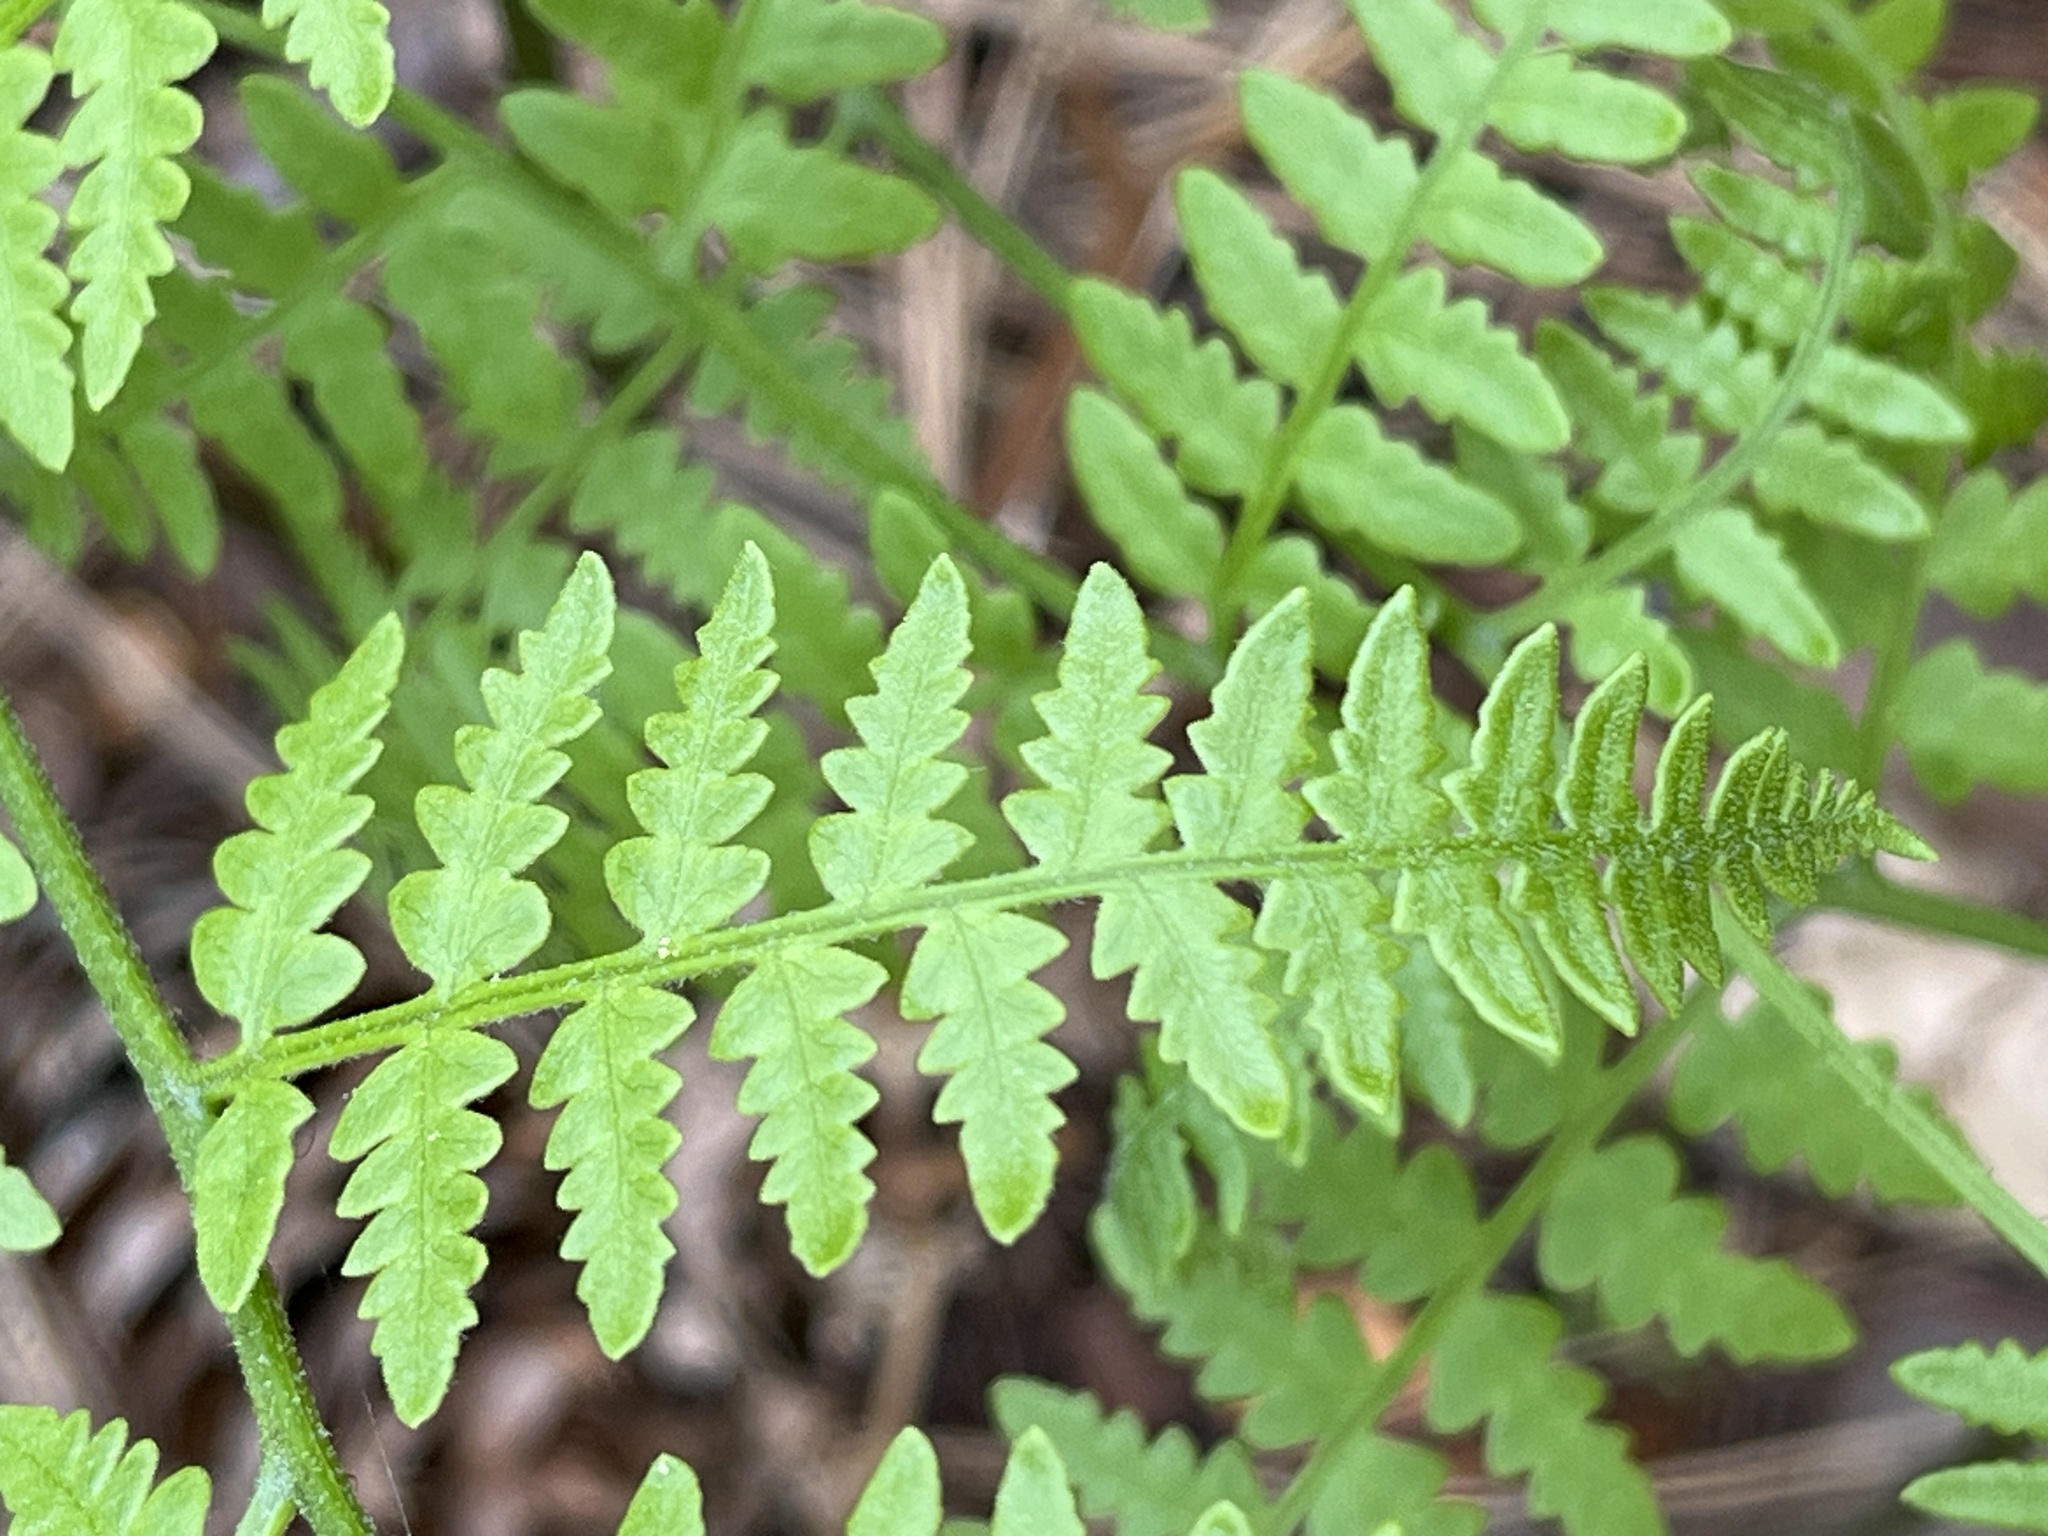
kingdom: Plantae
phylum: Tracheophyta
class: Polypodiopsida
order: Polypodiales
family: Dennstaedtiaceae
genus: Pteridium
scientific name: Pteridium aquilinum
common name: Bracken
